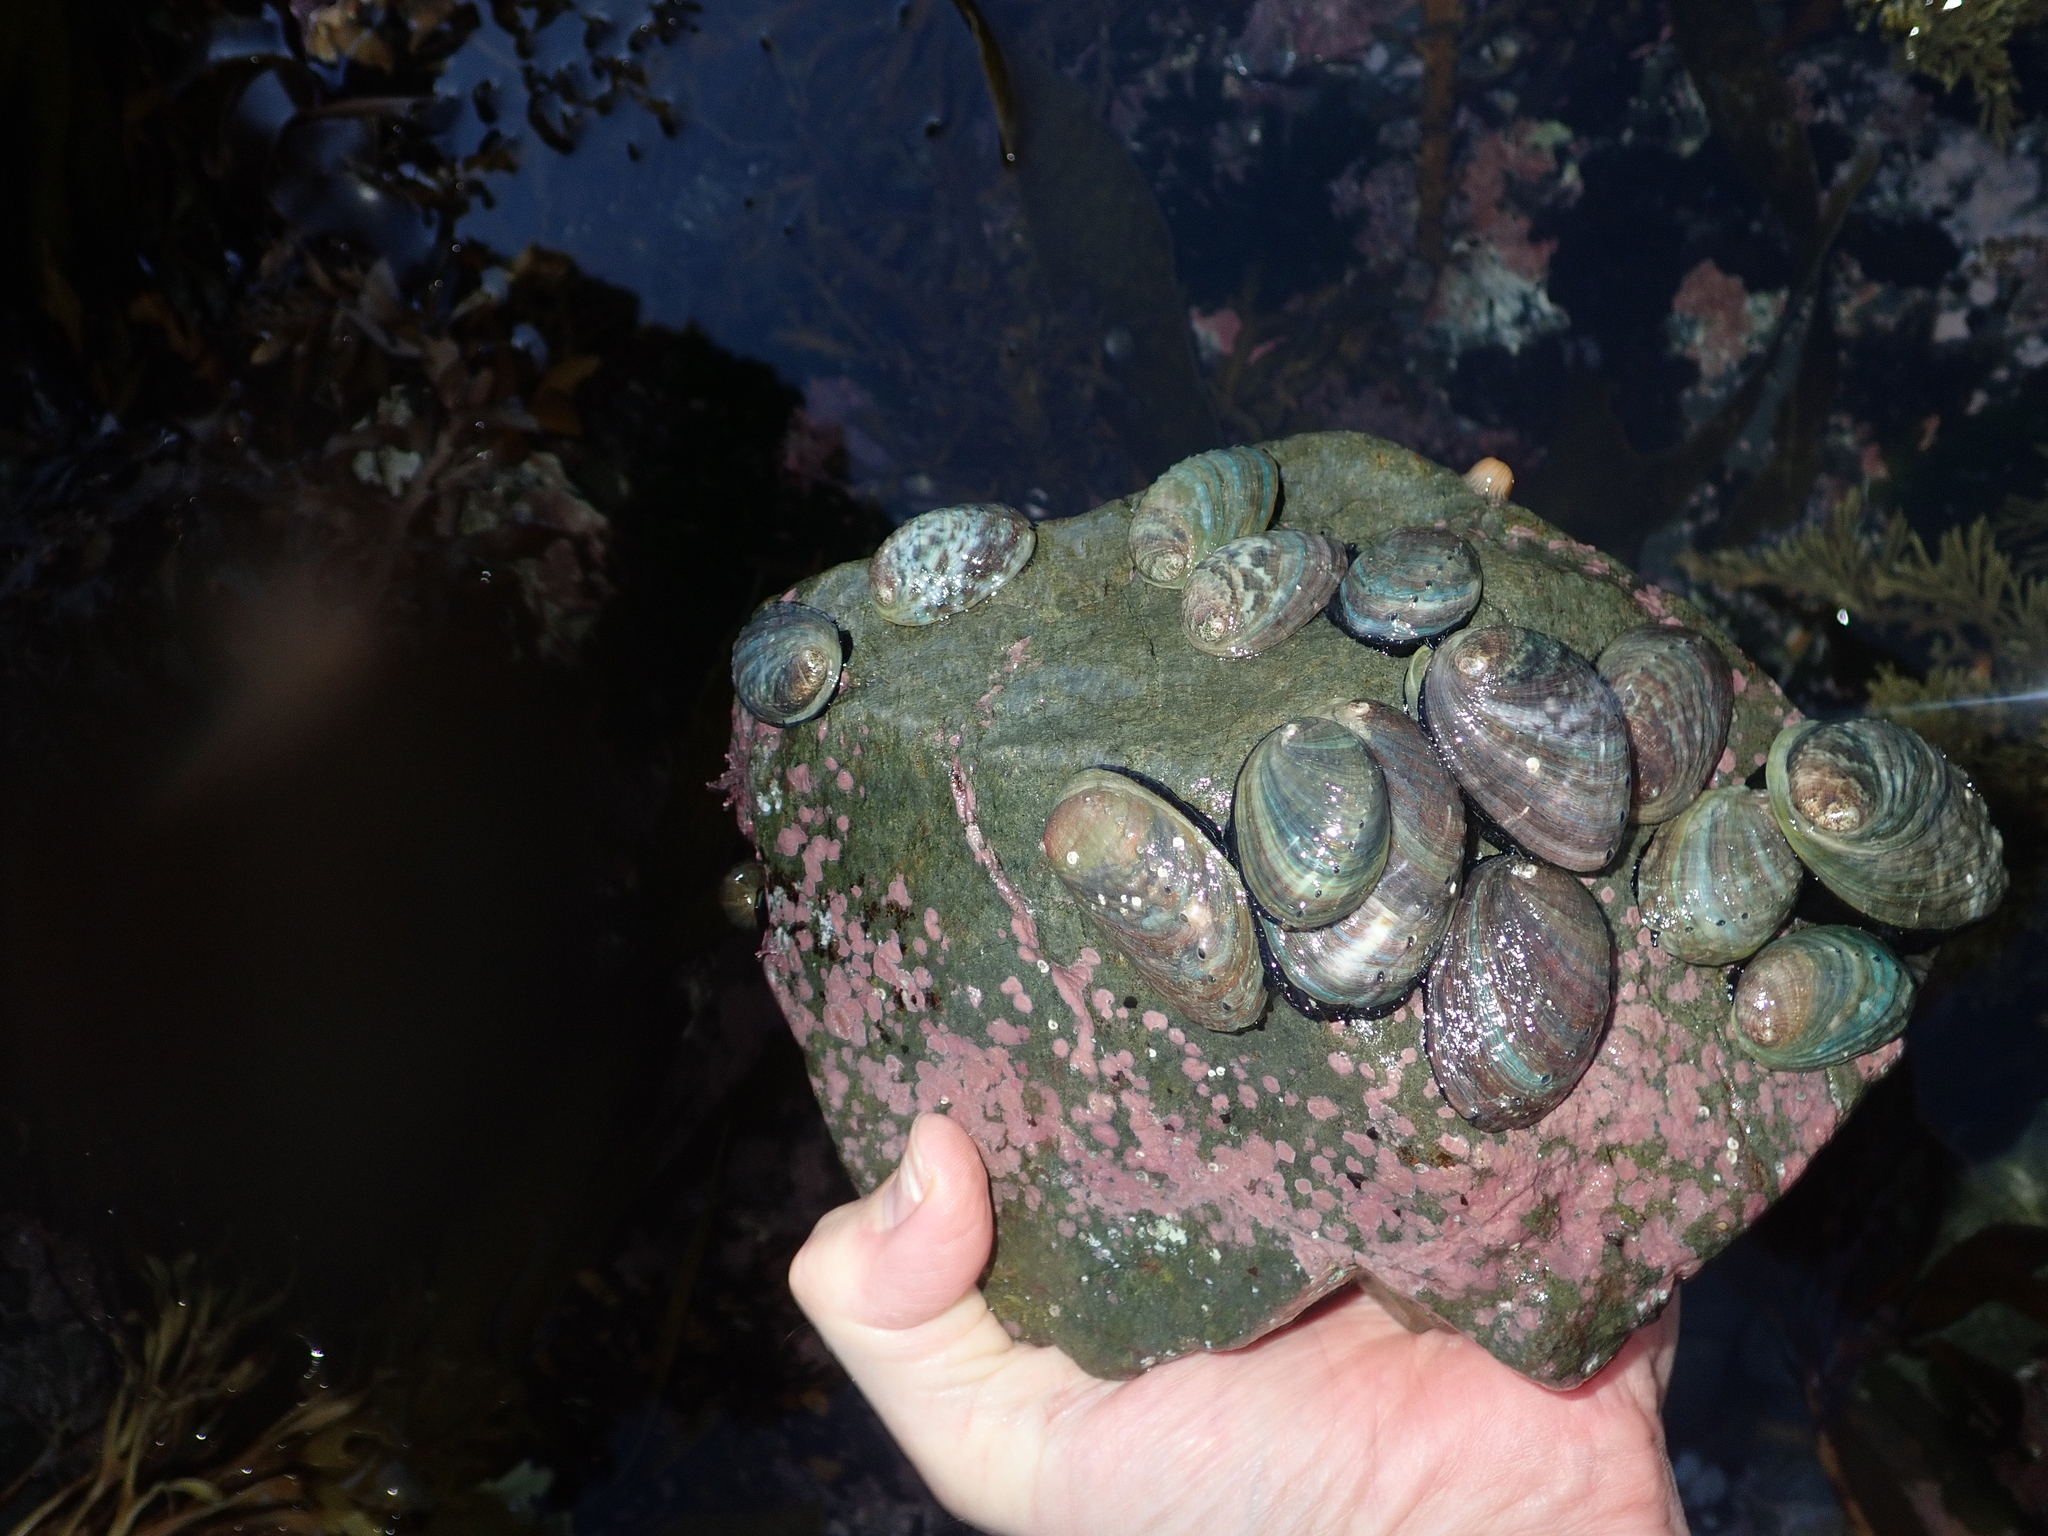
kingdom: Animalia
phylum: Mollusca
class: Gastropoda
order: Lepetellida
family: Haliotidae
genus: Haliotis
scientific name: Haliotis iris
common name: Abalone
